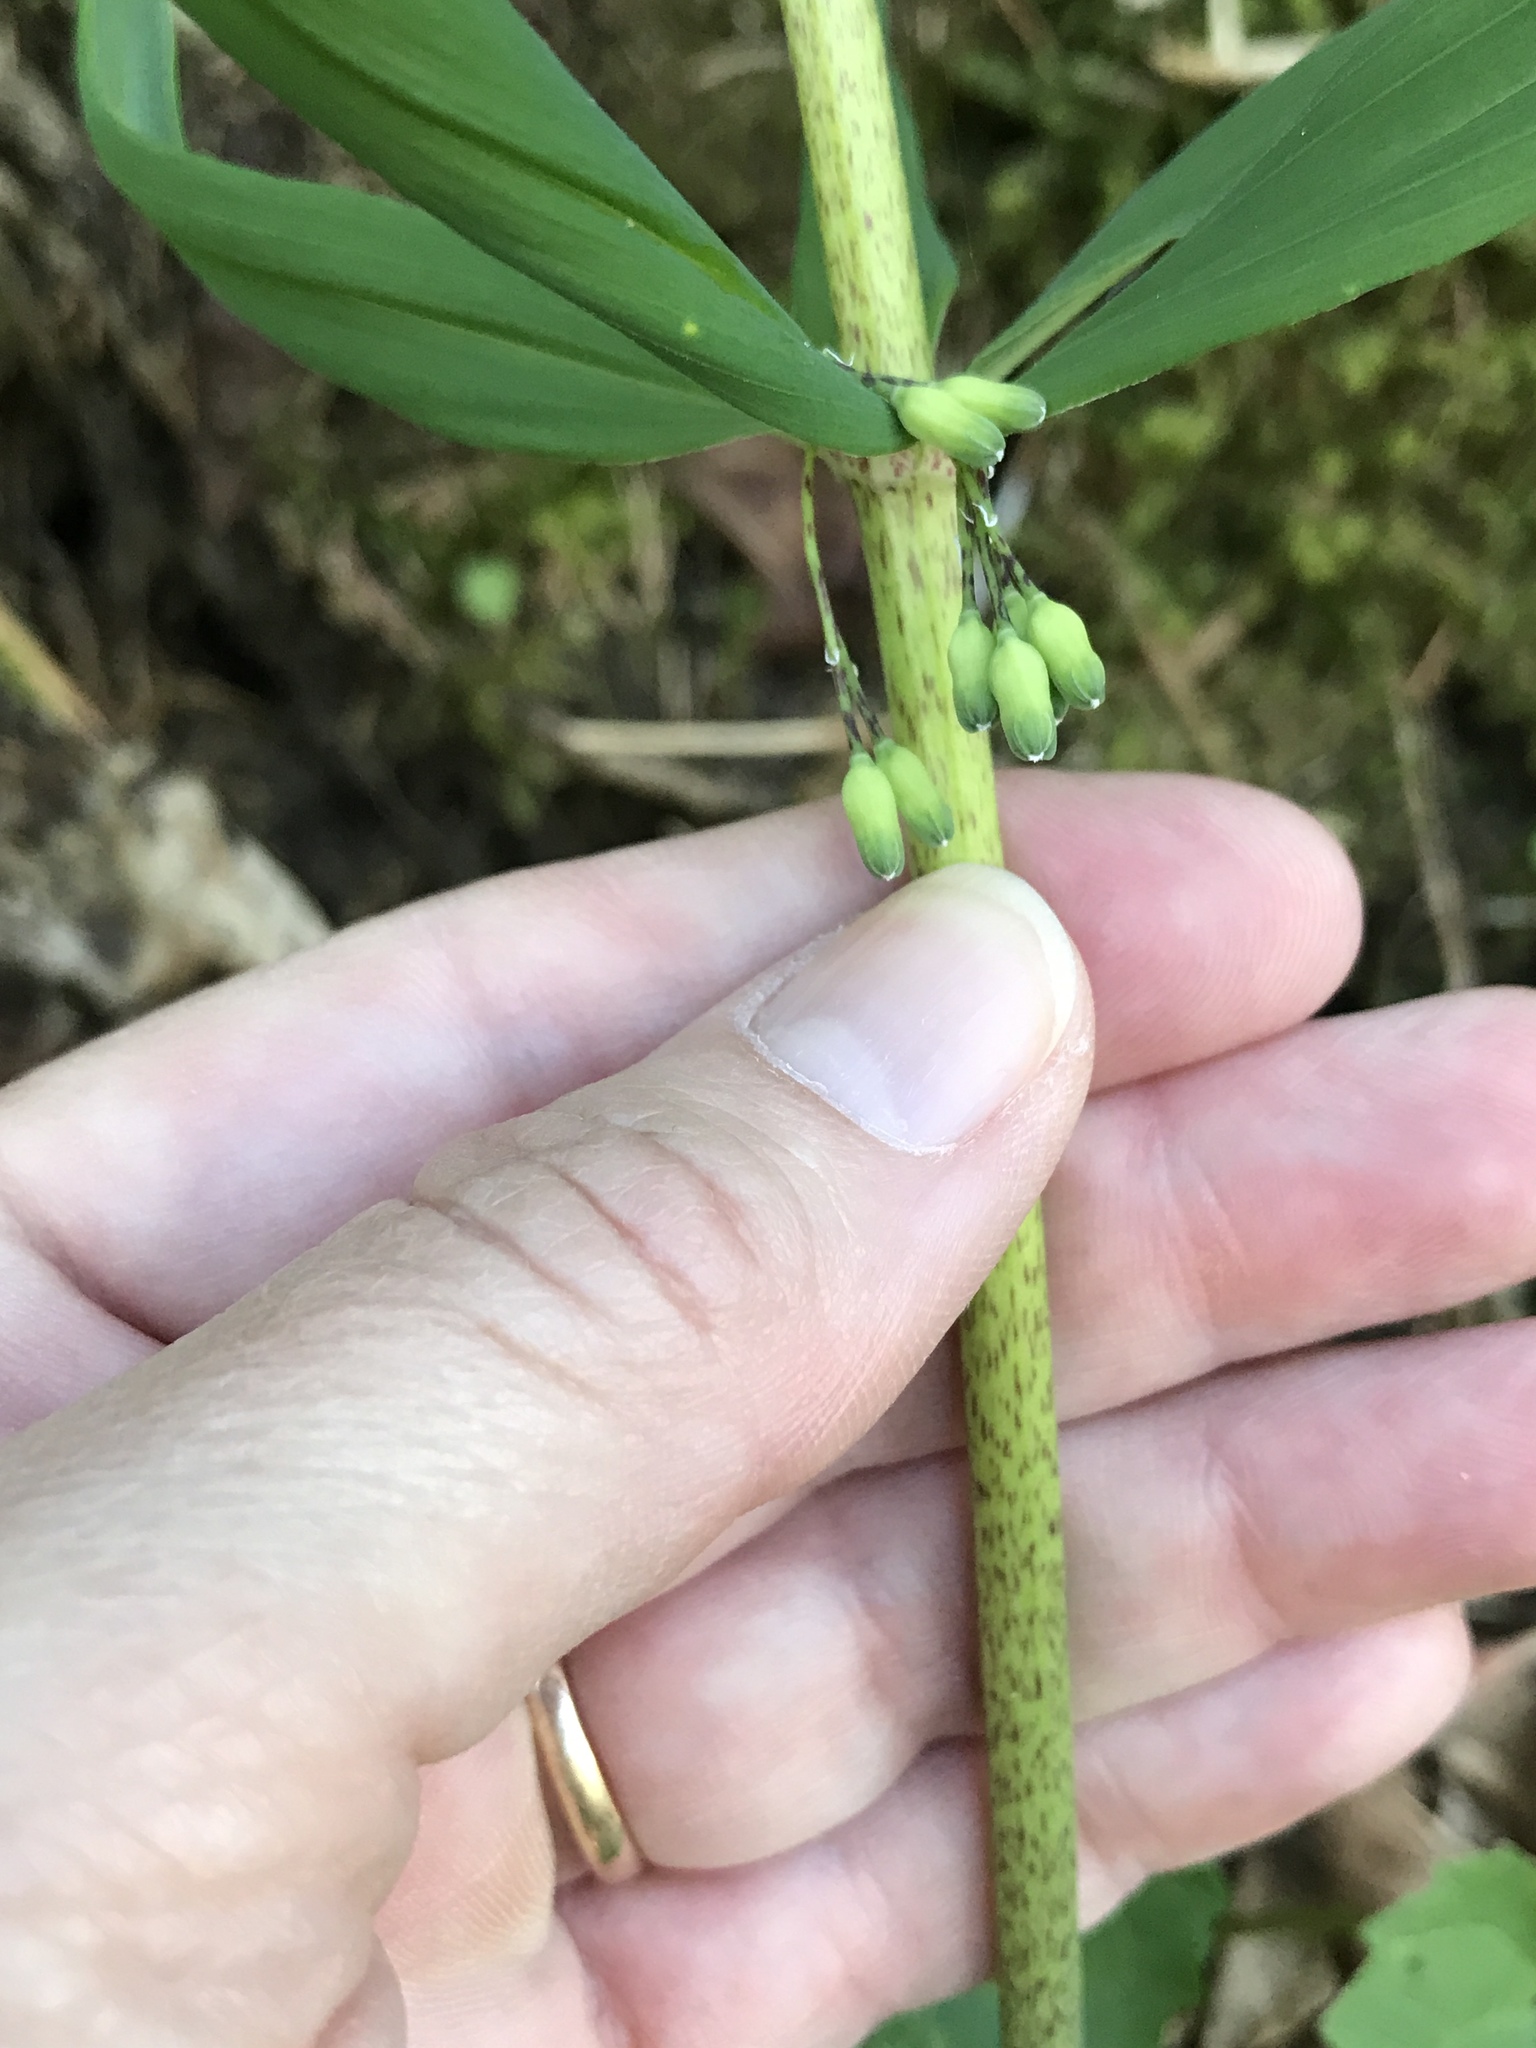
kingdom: Plantae
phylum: Tracheophyta
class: Liliopsida
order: Asparagales
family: Asparagaceae
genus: Polygonatum
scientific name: Polygonatum verticillatum
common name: Whorled solomon's-seal
